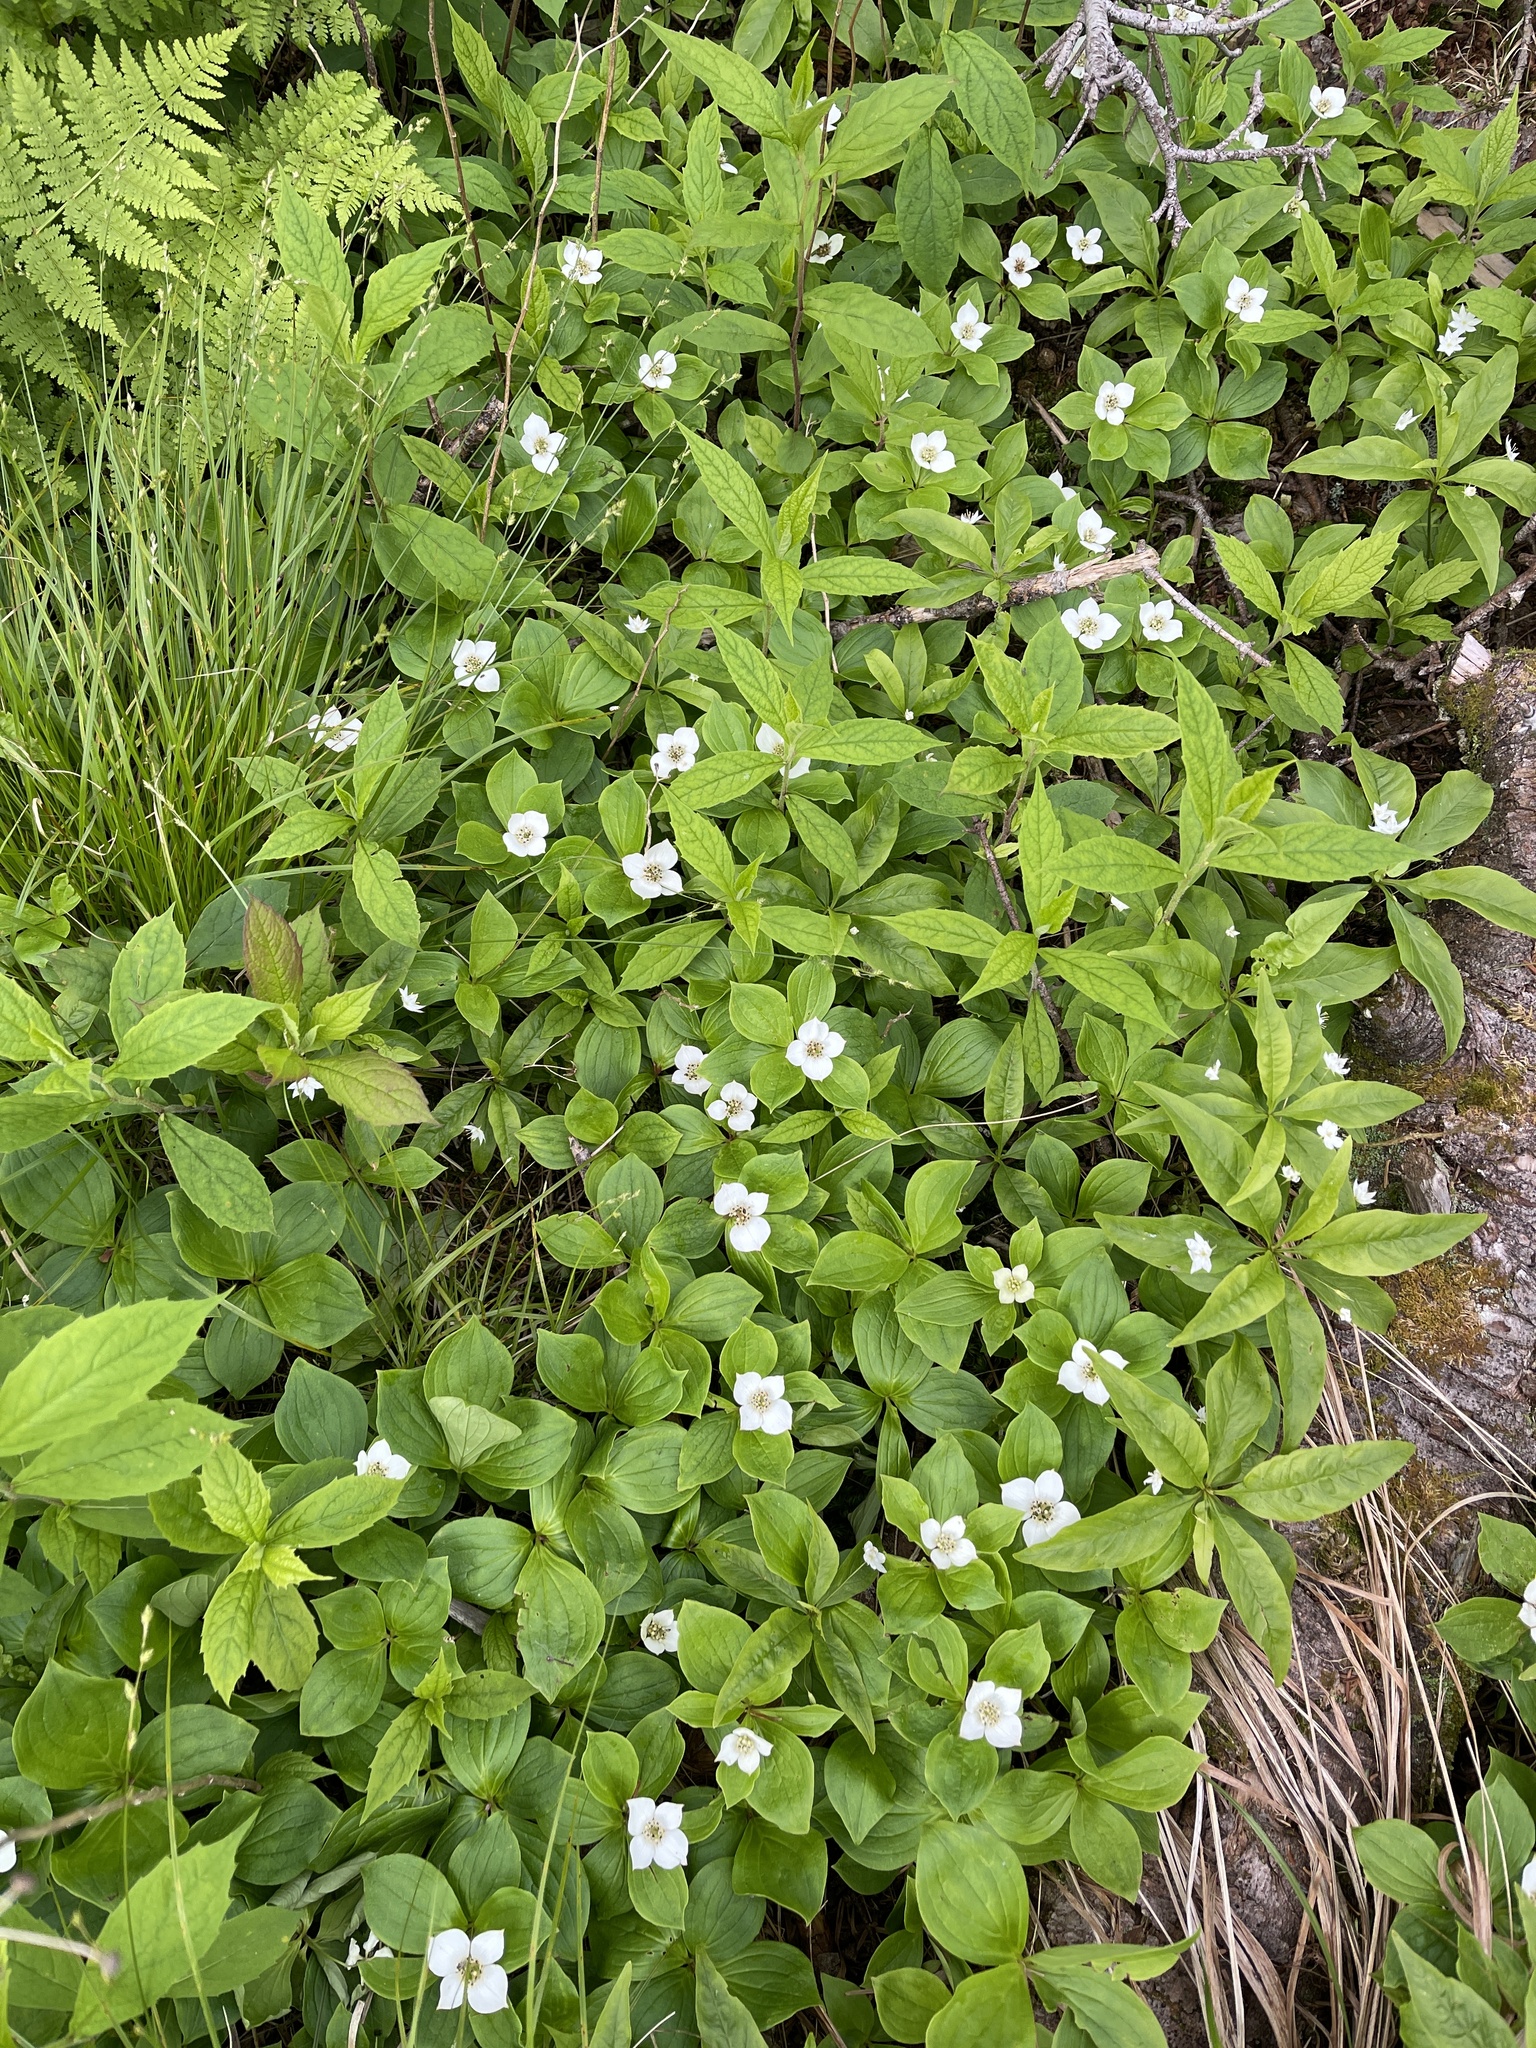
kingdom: Plantae
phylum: Tracheophyta
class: Magnoliopsida
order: Cornales
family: Cornaceae
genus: Cornus
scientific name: Cornus canadensis
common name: Creeping dogwood
